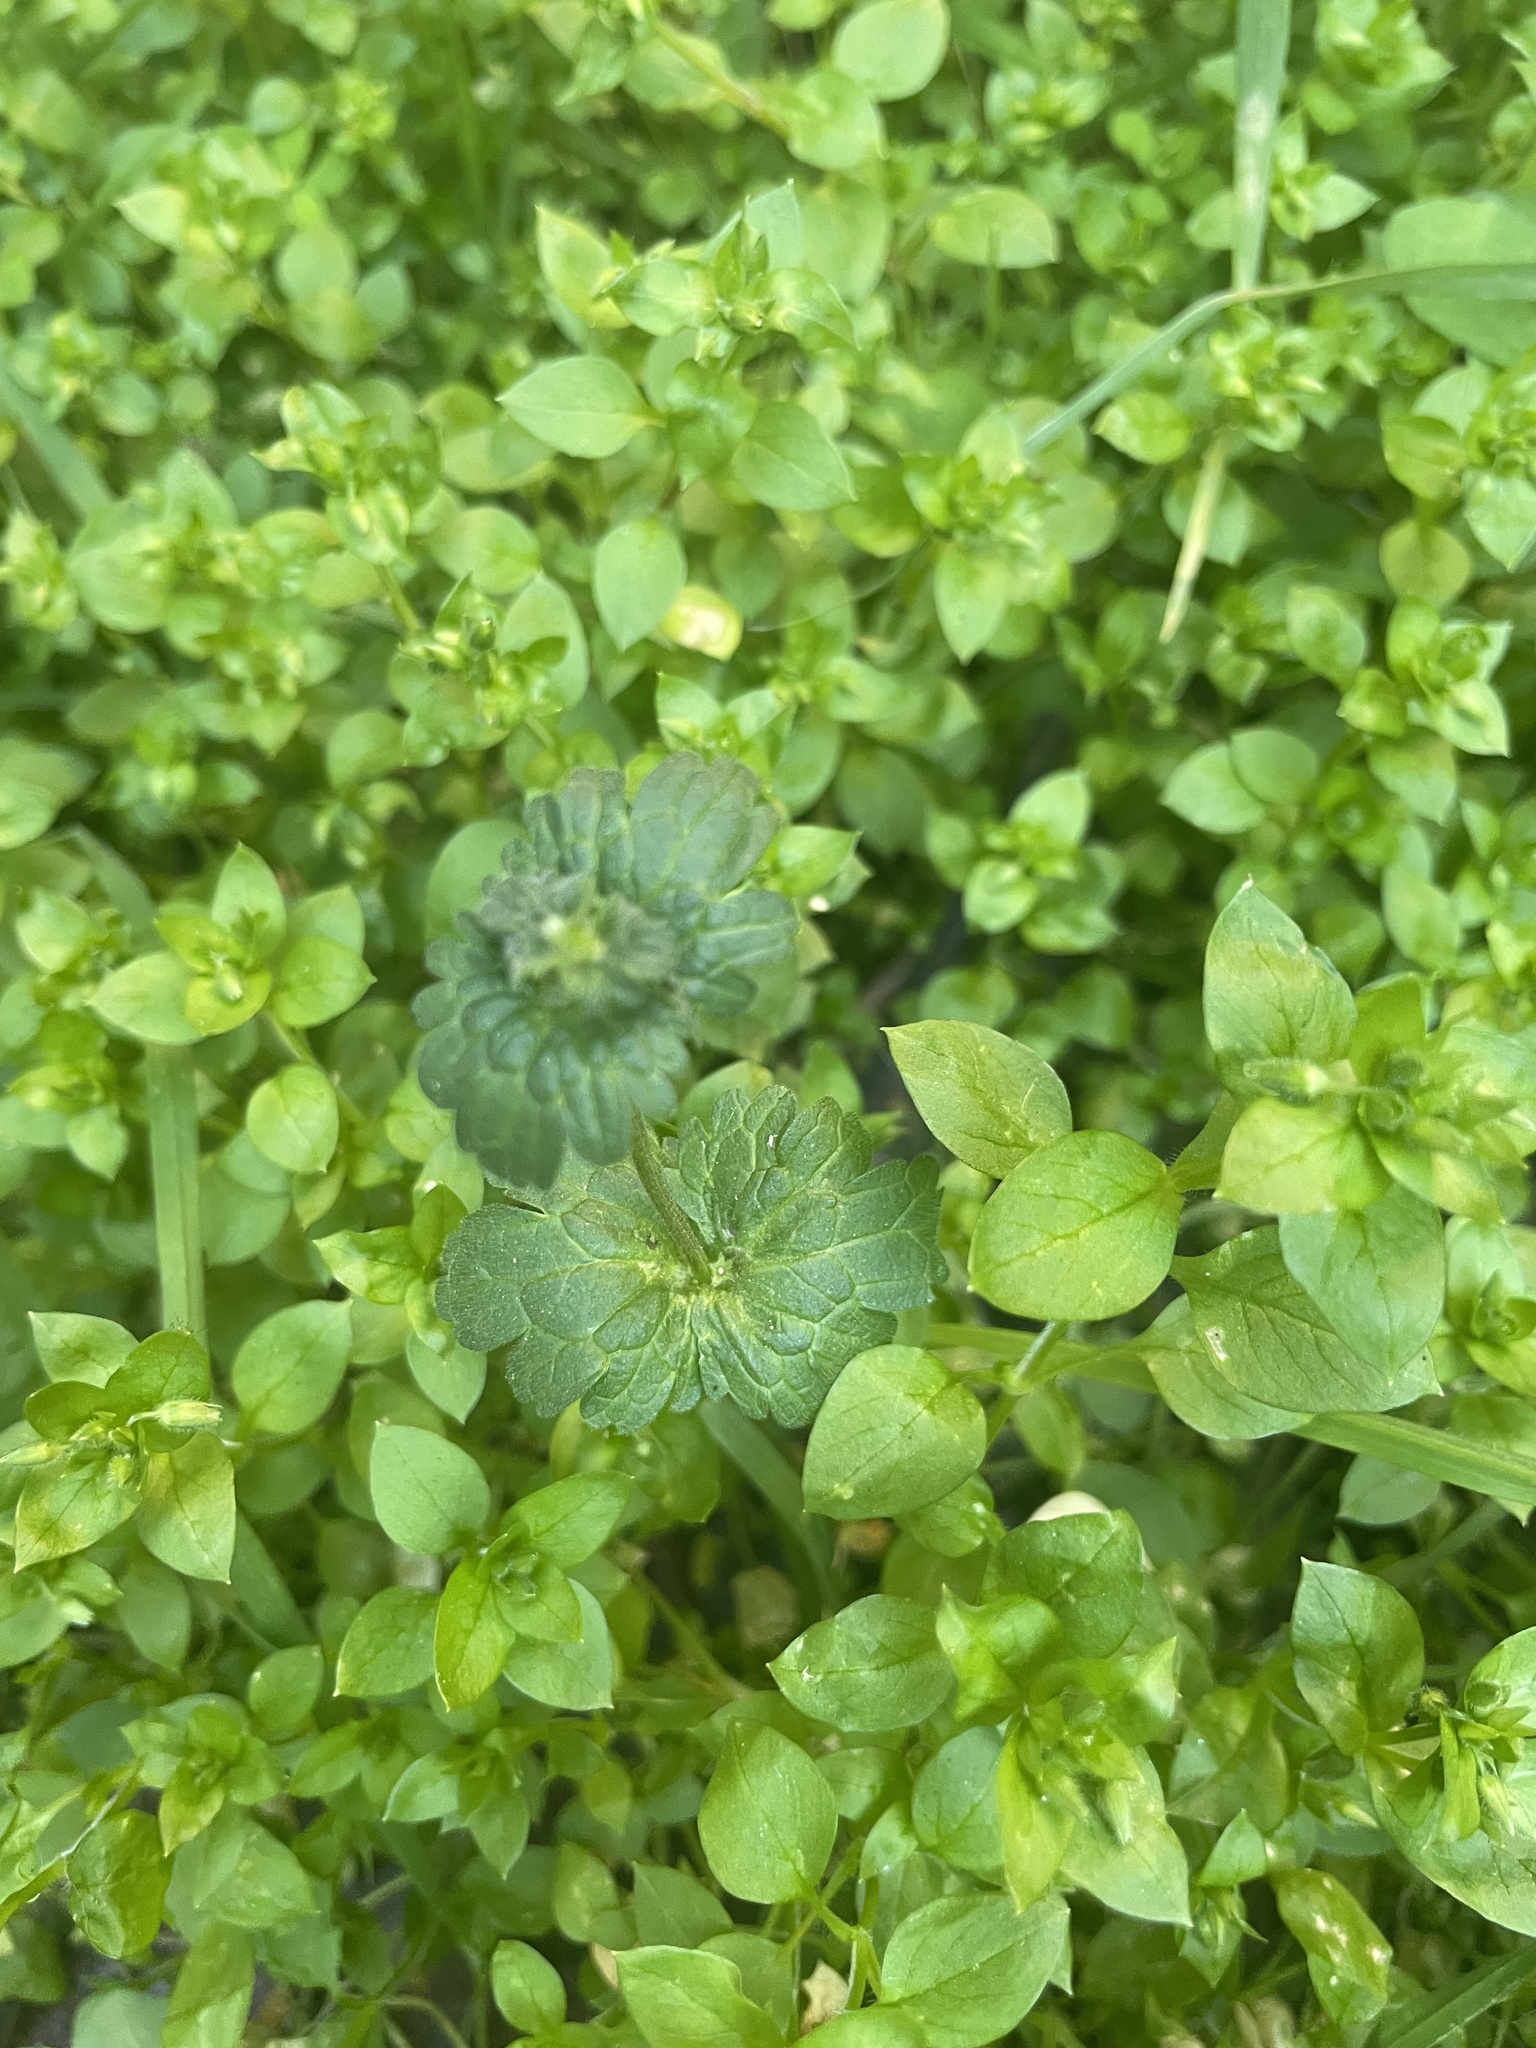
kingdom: Plantae
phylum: Tracheophyta
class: Magnoliopsida
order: Lamiales
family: Lamiaceae
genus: Lamium
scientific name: Lamium amplexicaule
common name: Henbit dead-nettle
